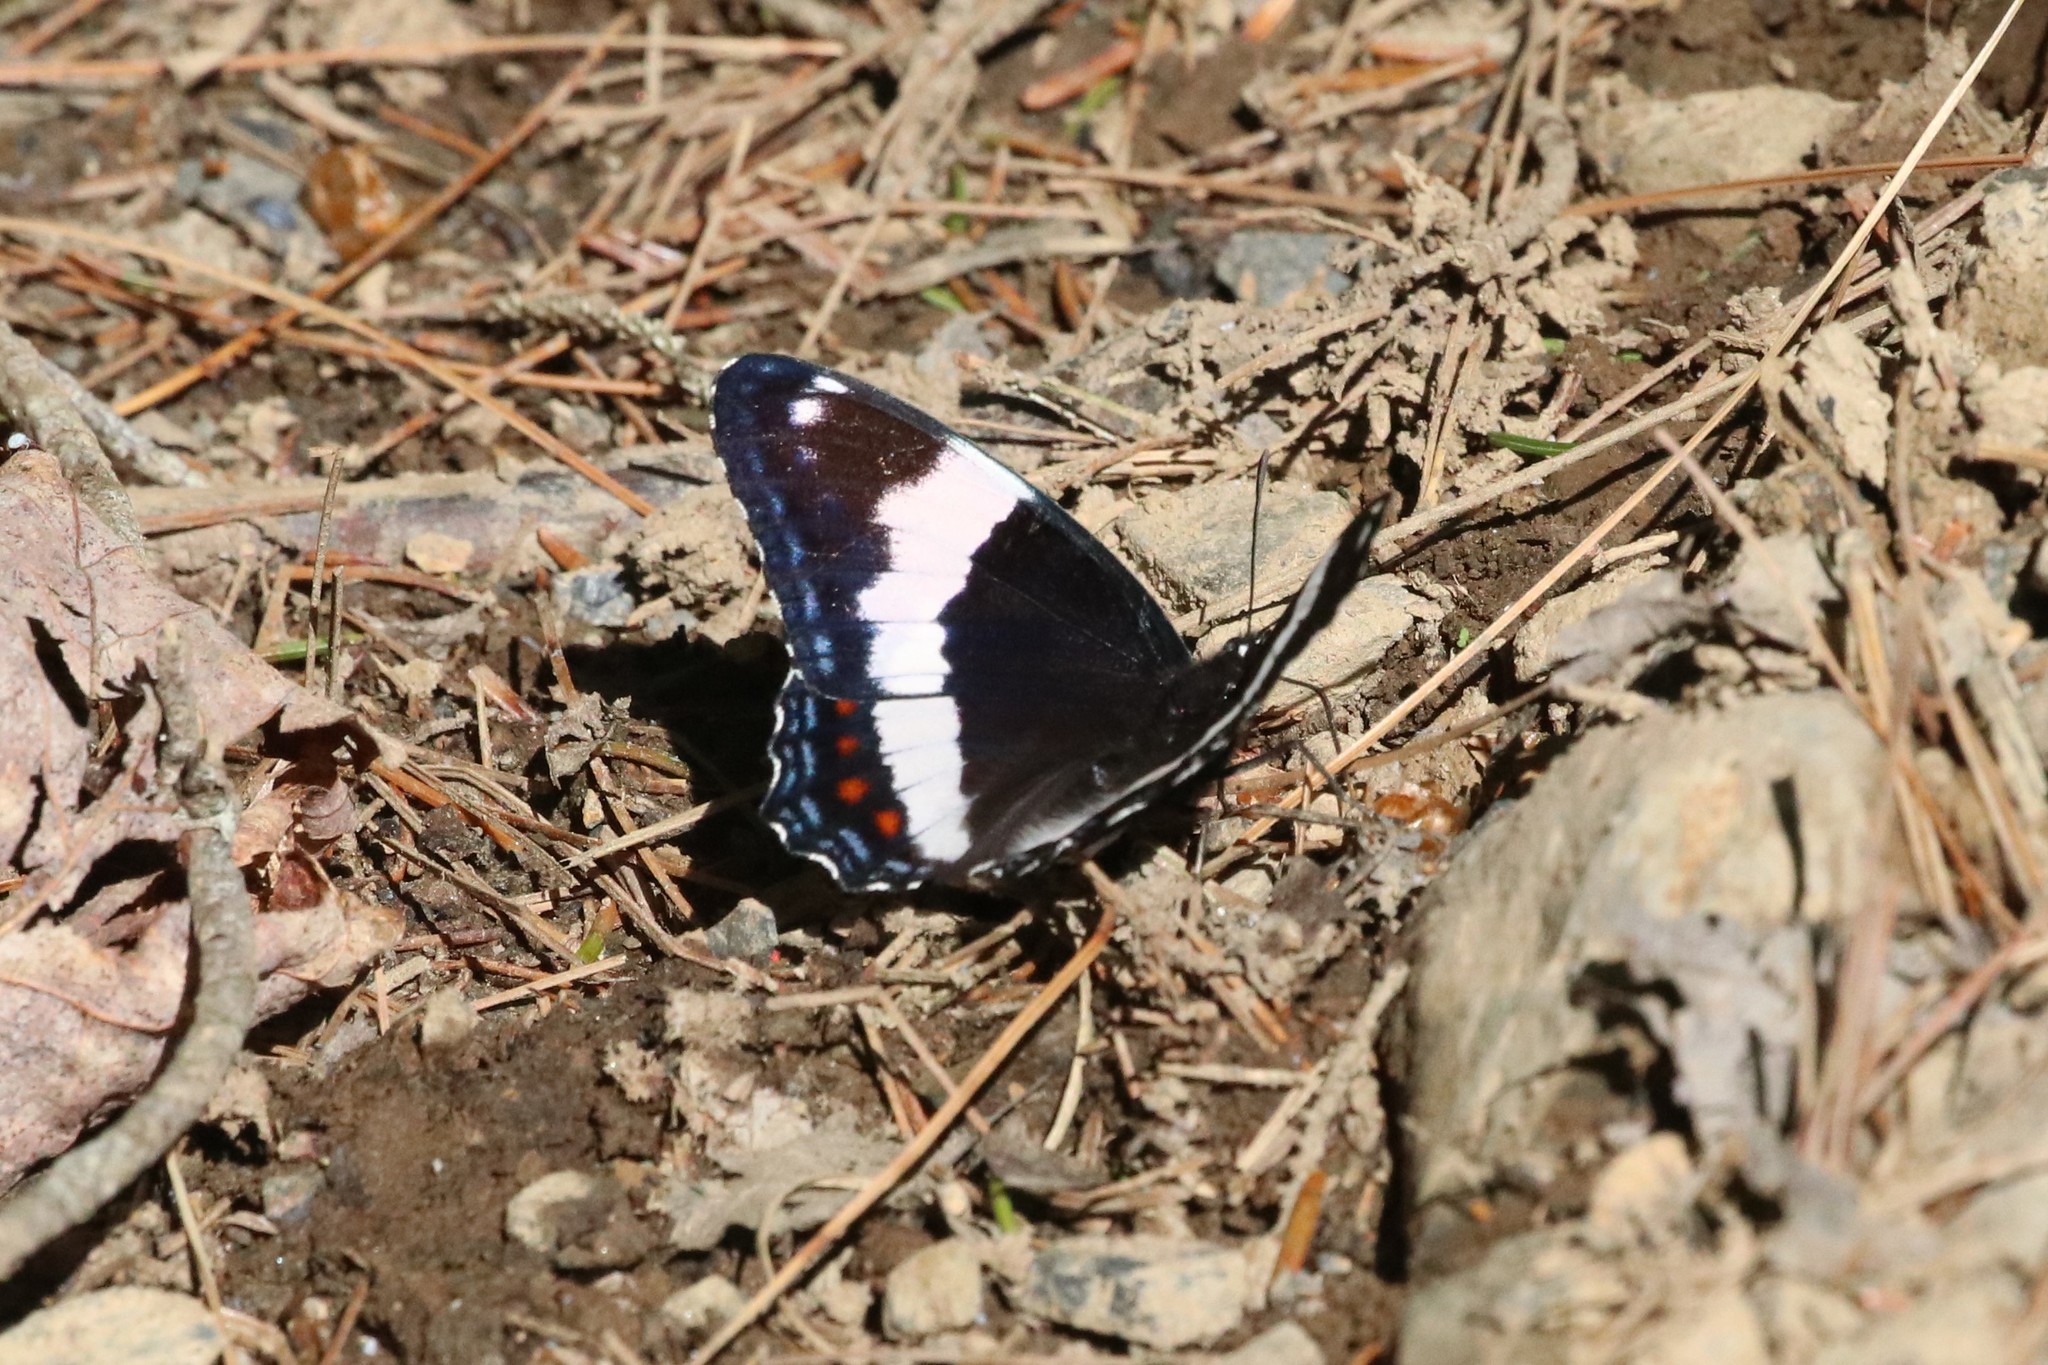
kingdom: Animalia
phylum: Arthropoda
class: Insecta
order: Lepidoptera
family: Nymphalidae
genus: Limenitis
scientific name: Limenitis arthemis
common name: Red-spotted admiral
